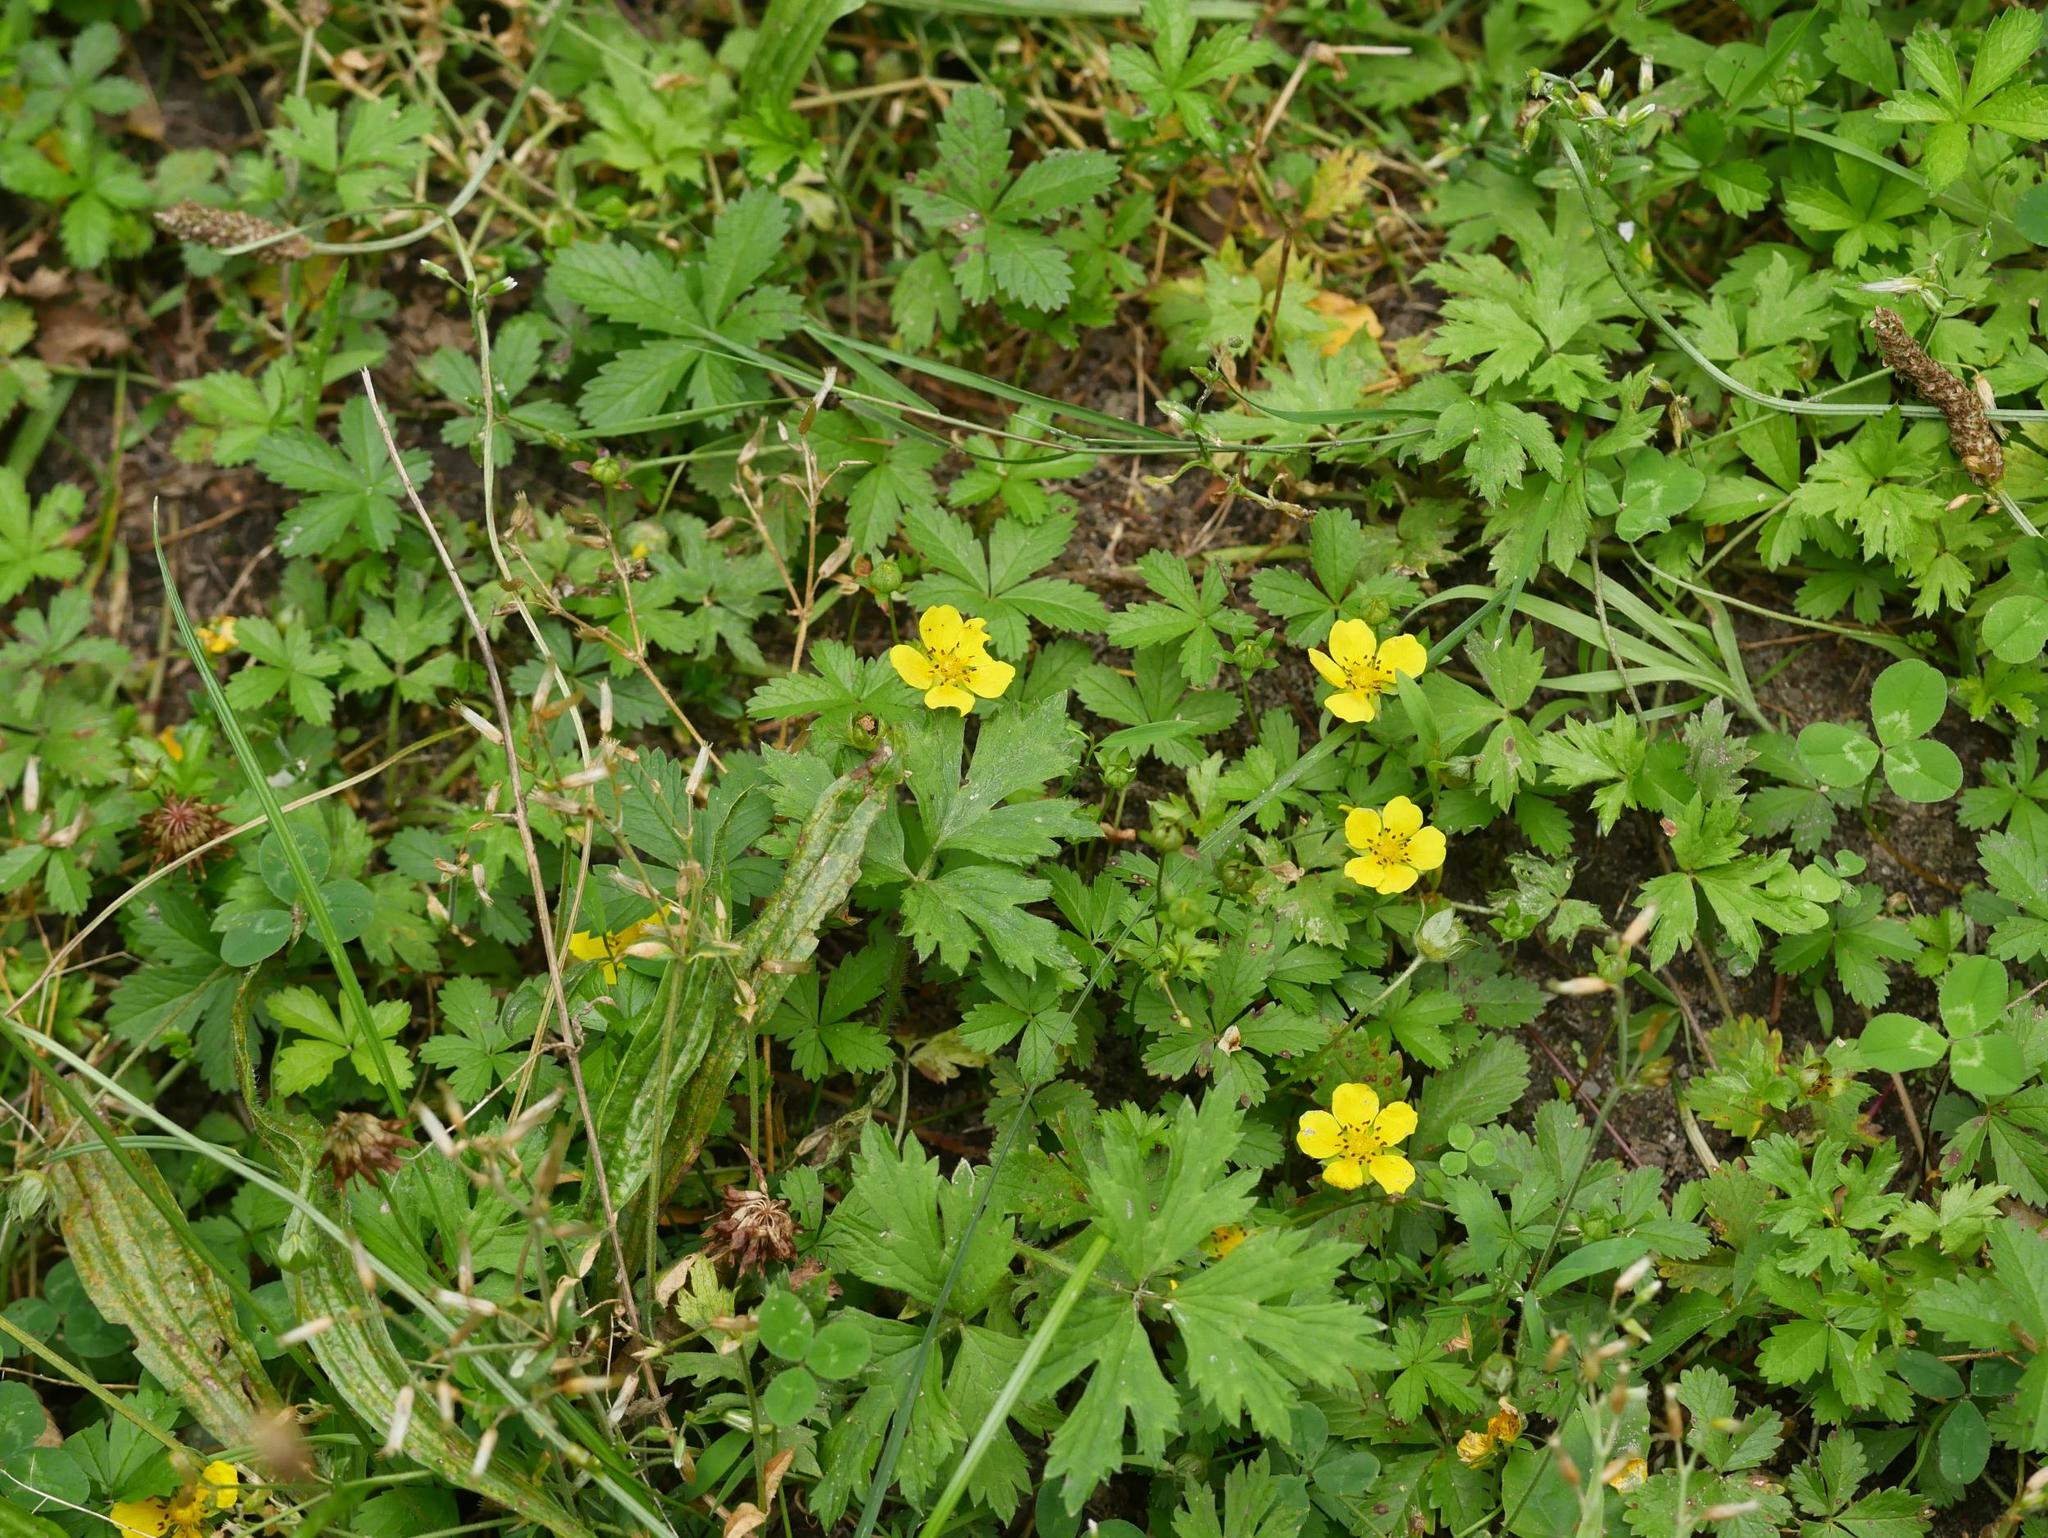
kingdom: Plantae
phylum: Tracheophyta
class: Magnoliopsida
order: Rosales
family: Rosaceae
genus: Potentilla
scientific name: Potentilla reptans
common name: Creeping cinquefoil
